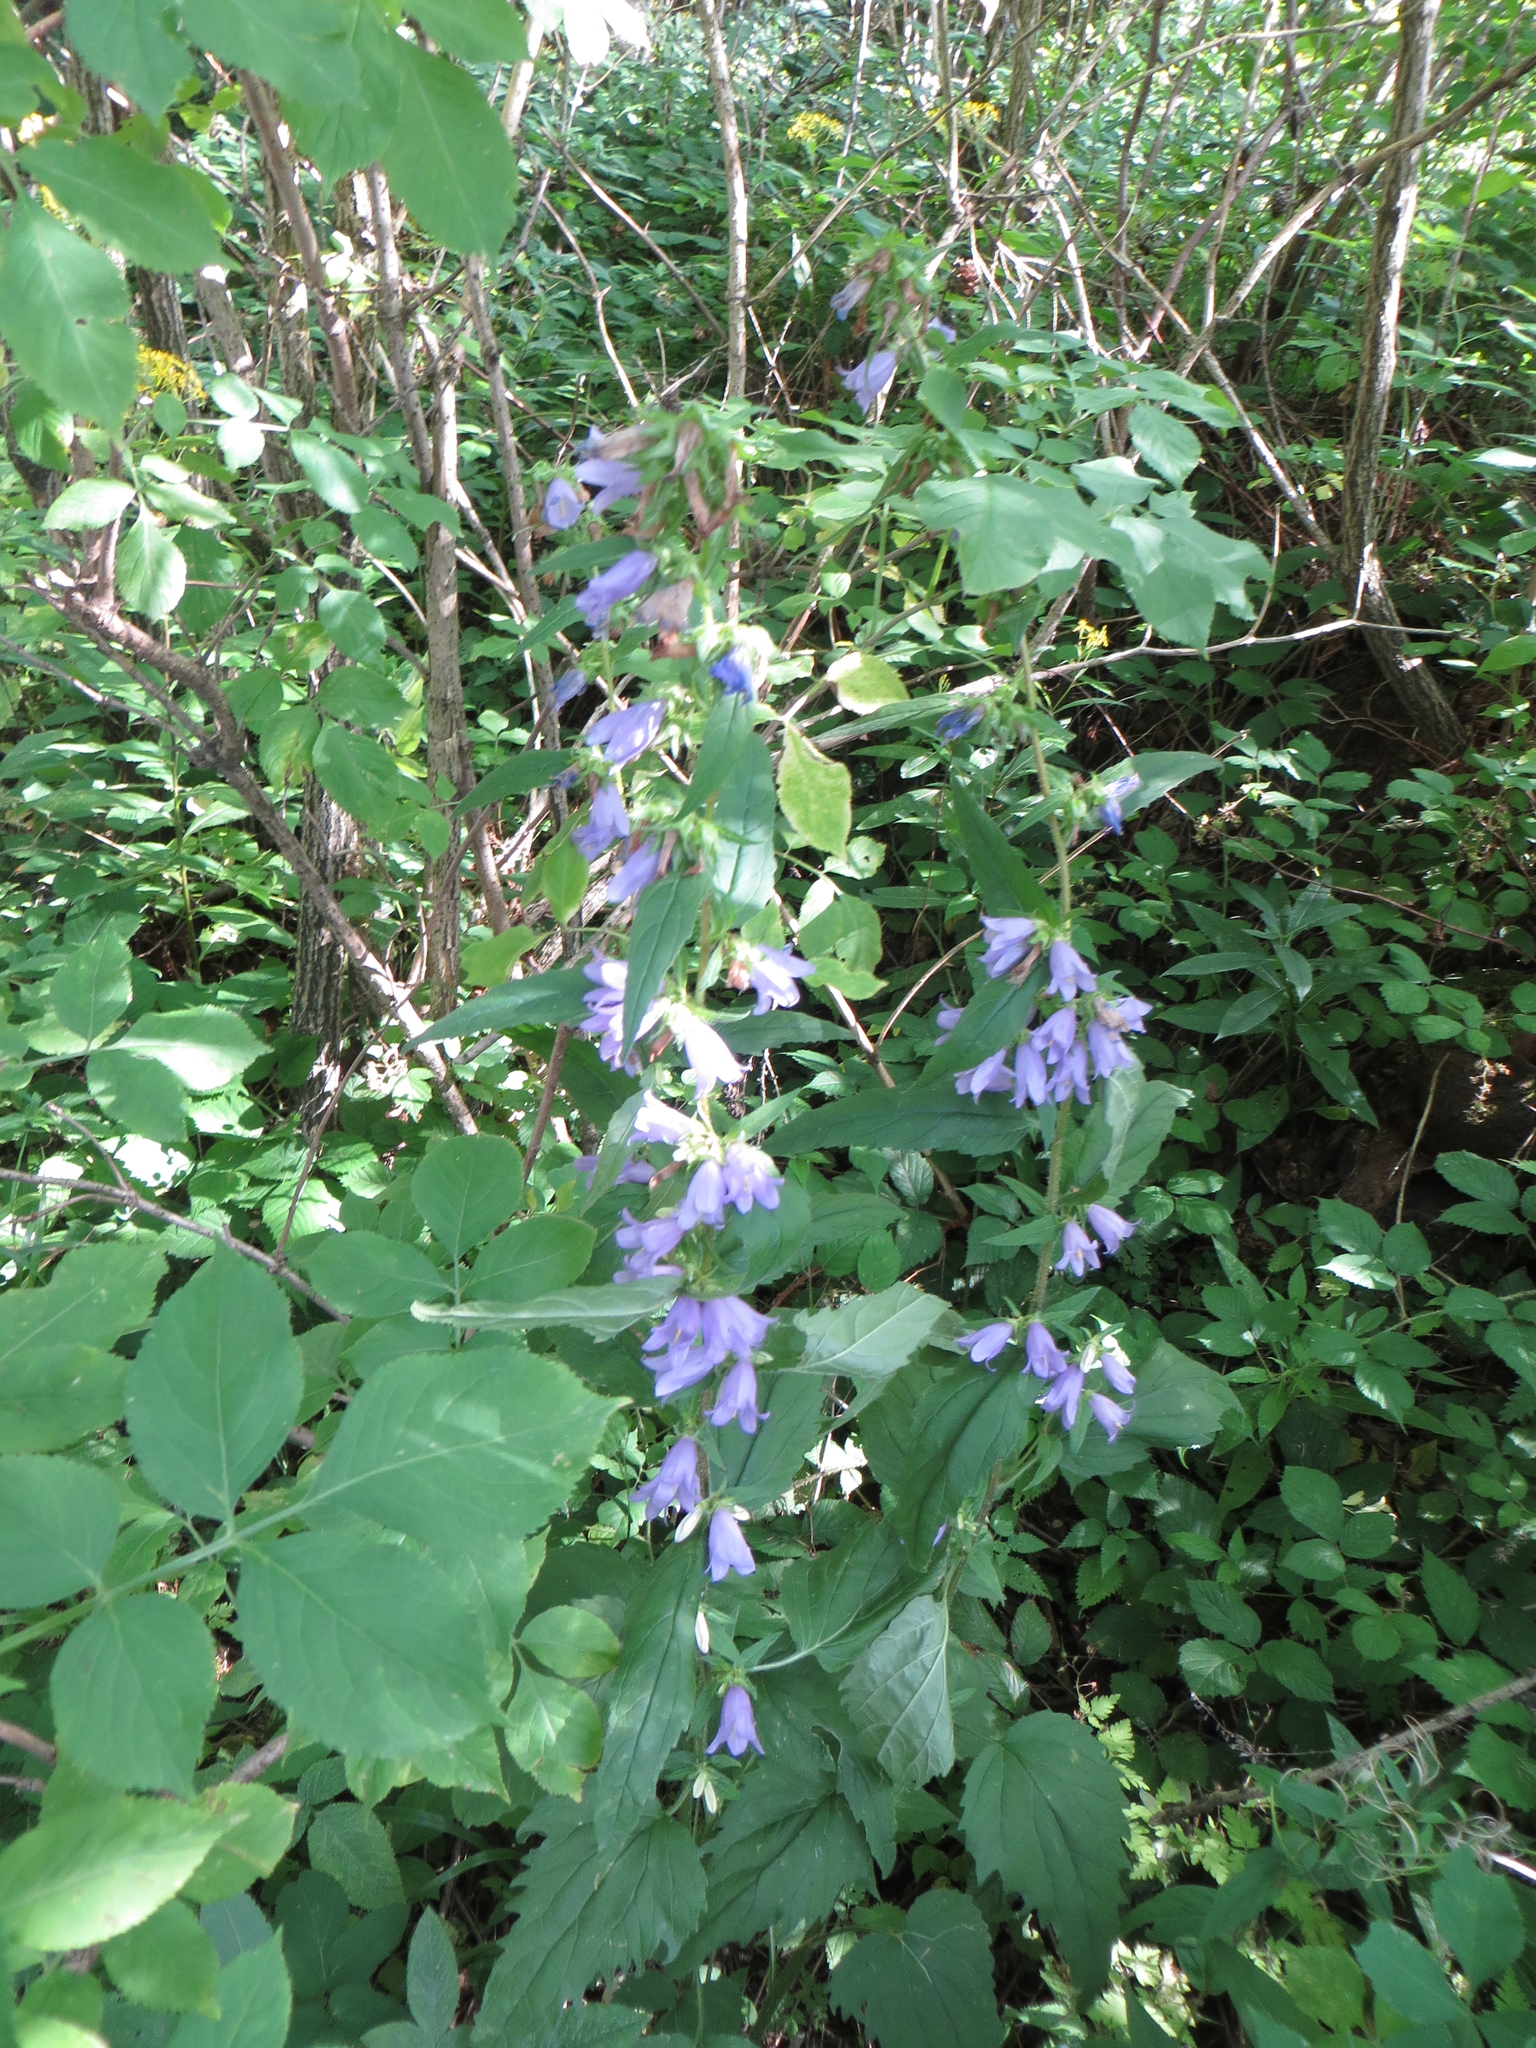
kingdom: Plantae
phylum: Tracheophyta
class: Magnoliopsida
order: Asterales
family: Campanulaceae
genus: Campanula
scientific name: Campanula trachelium
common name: Nettle-leaved bellflower
